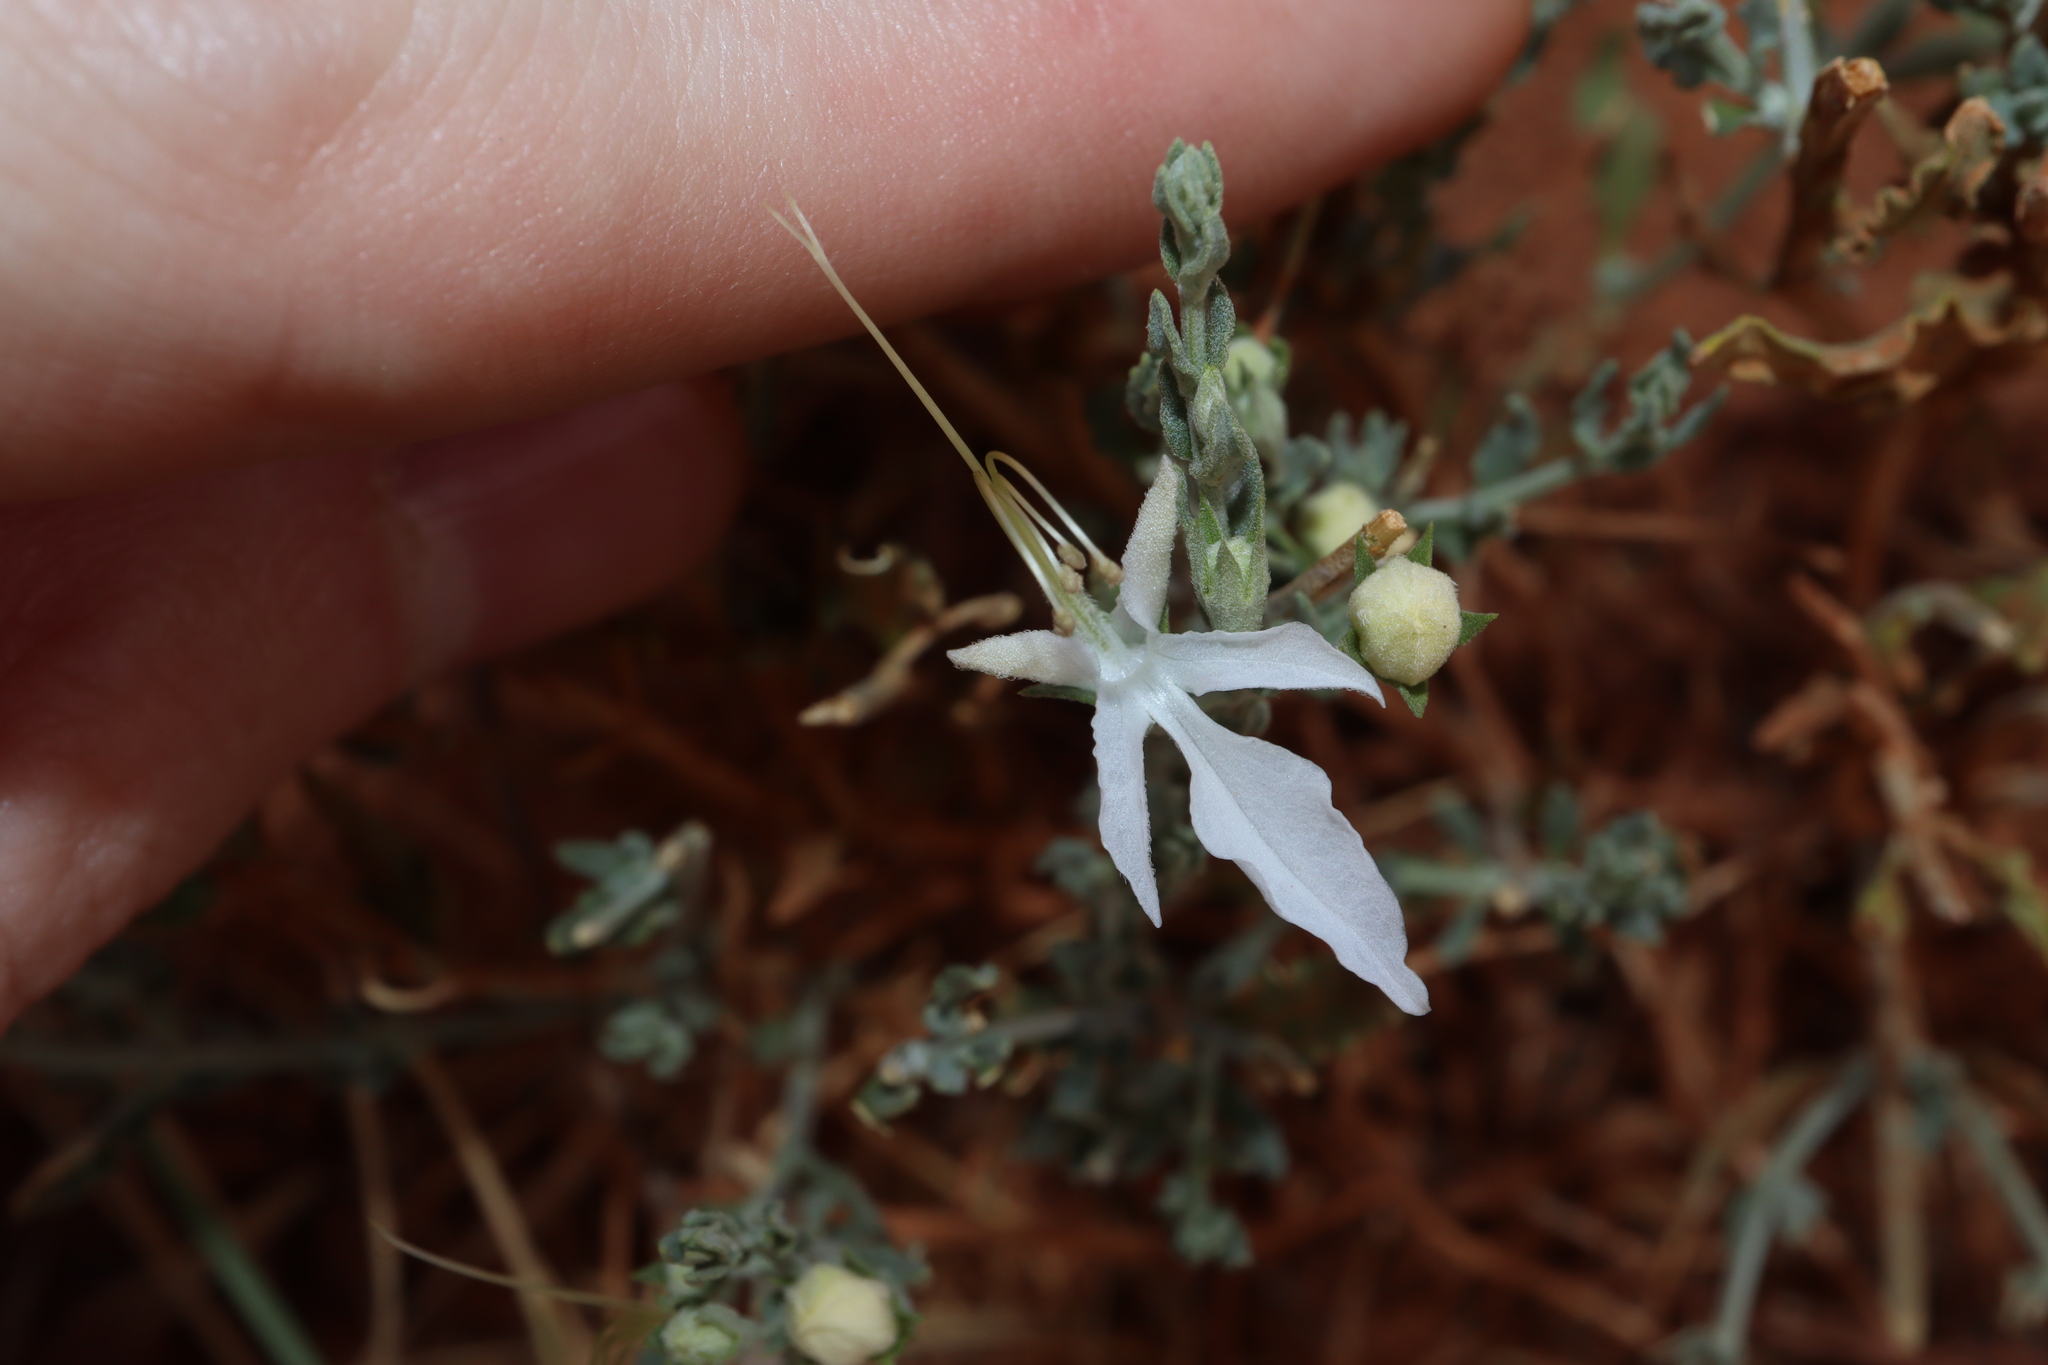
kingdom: Plantae
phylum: Tracheophyta
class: Magnoliopsida
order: Lamiales
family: Lamiaceae
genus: Teucrium
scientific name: Teucrium racemosum
